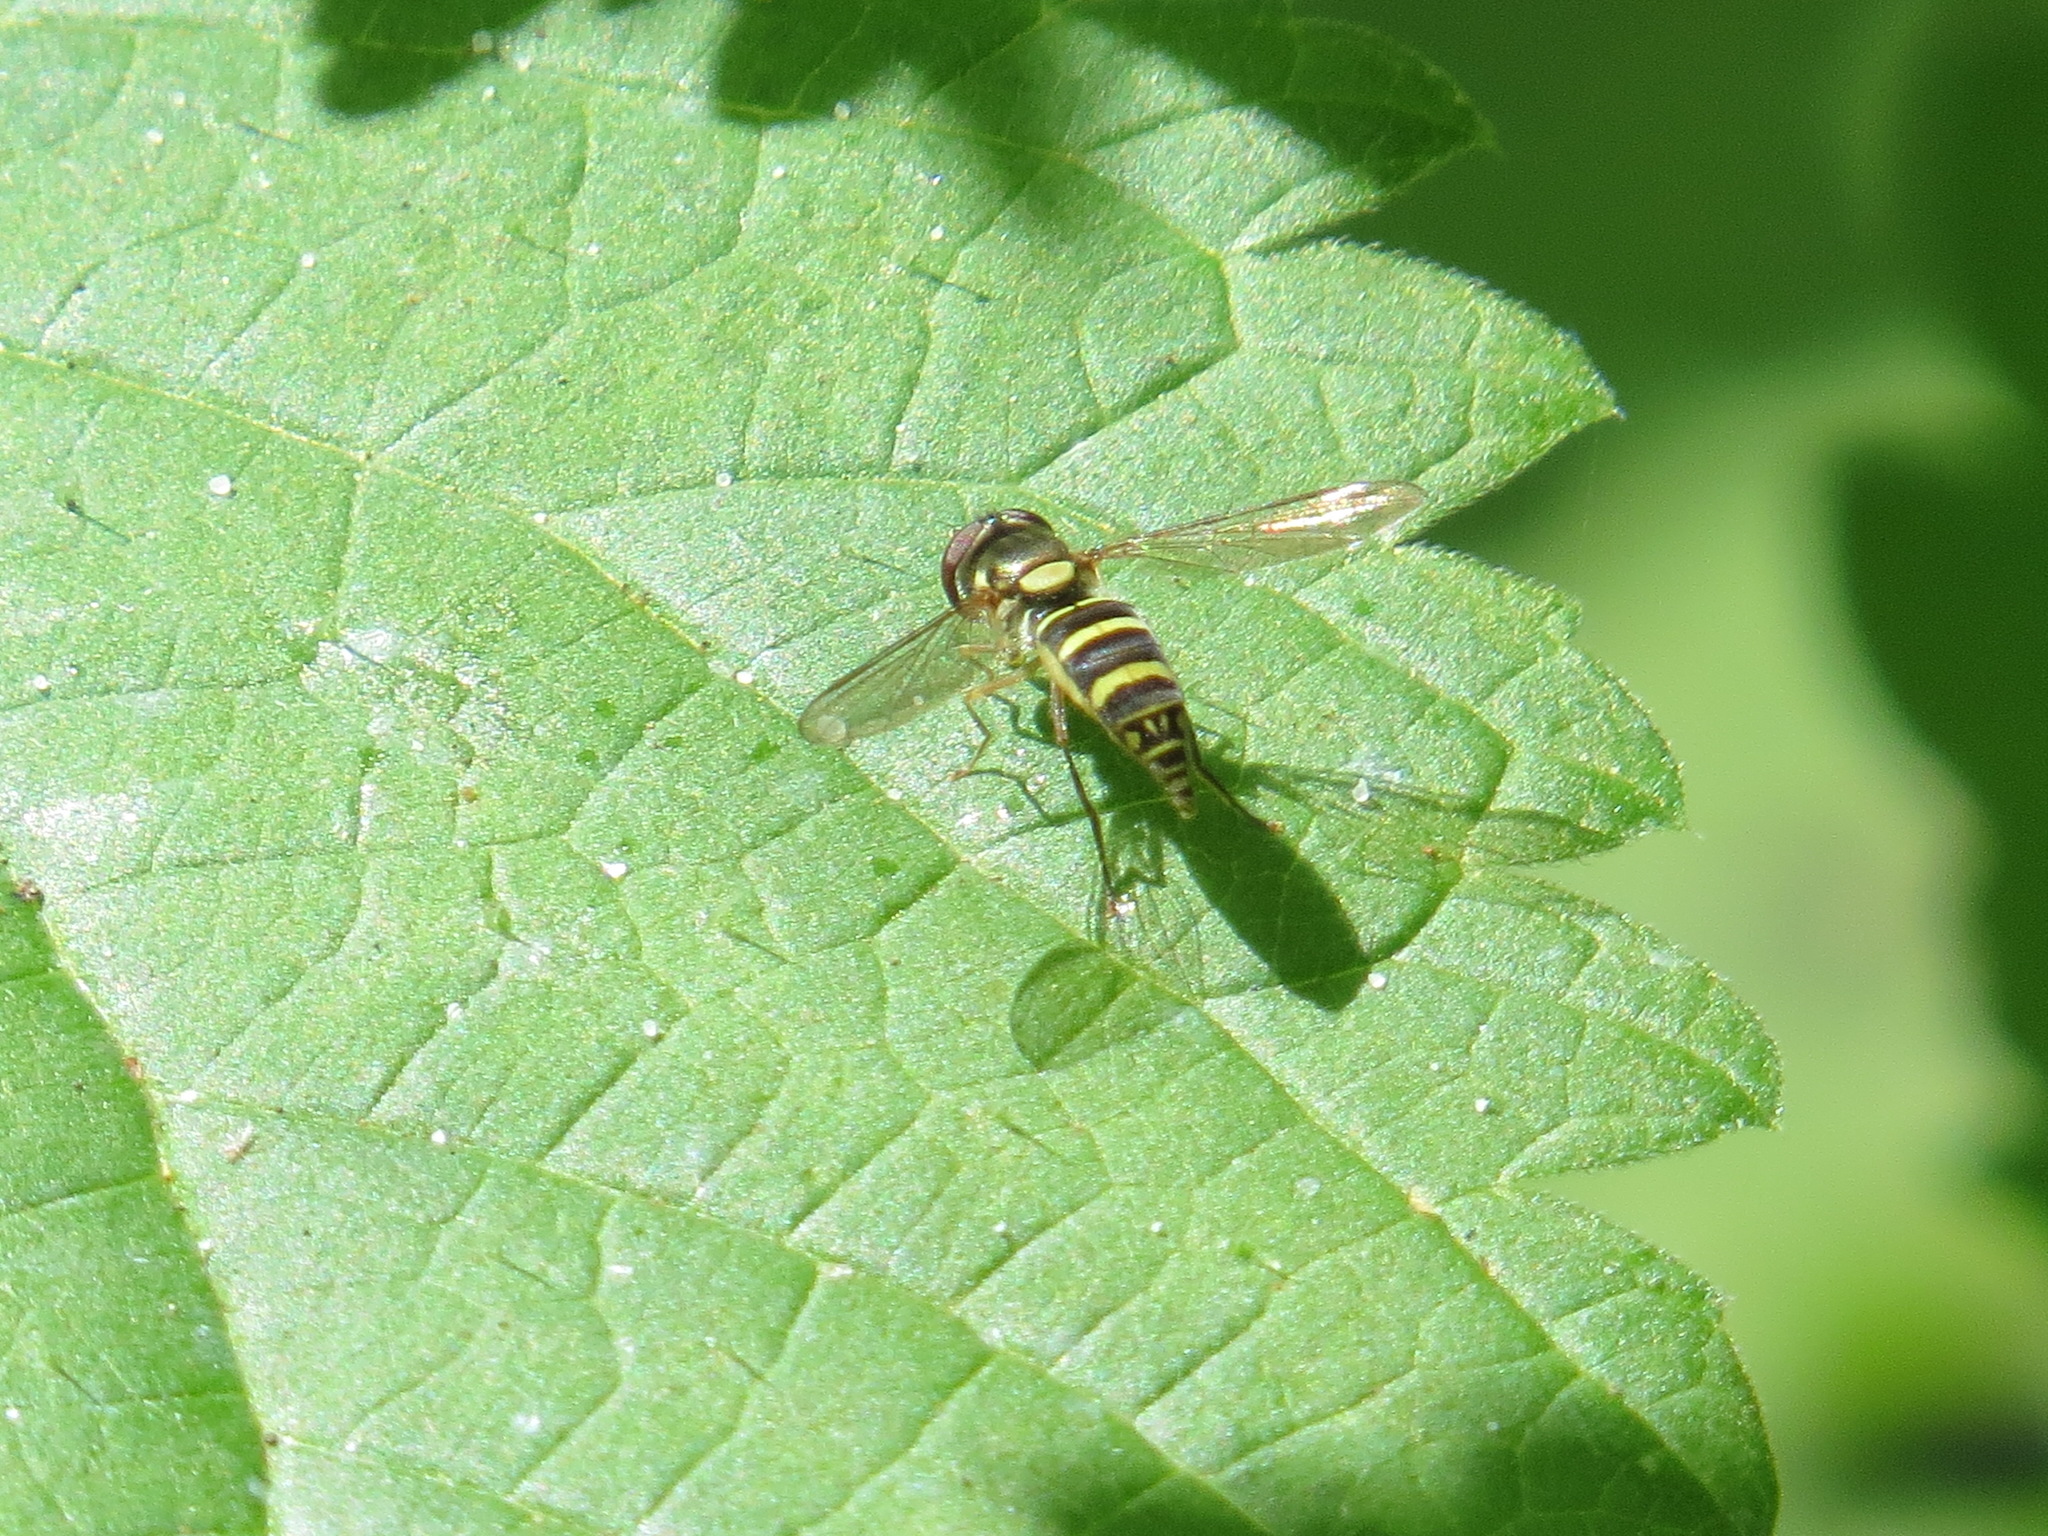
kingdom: Animalia
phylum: Arthropoda
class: Insecta
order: Diptera
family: Syrphidae
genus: Fazia
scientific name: Fazia micrura
